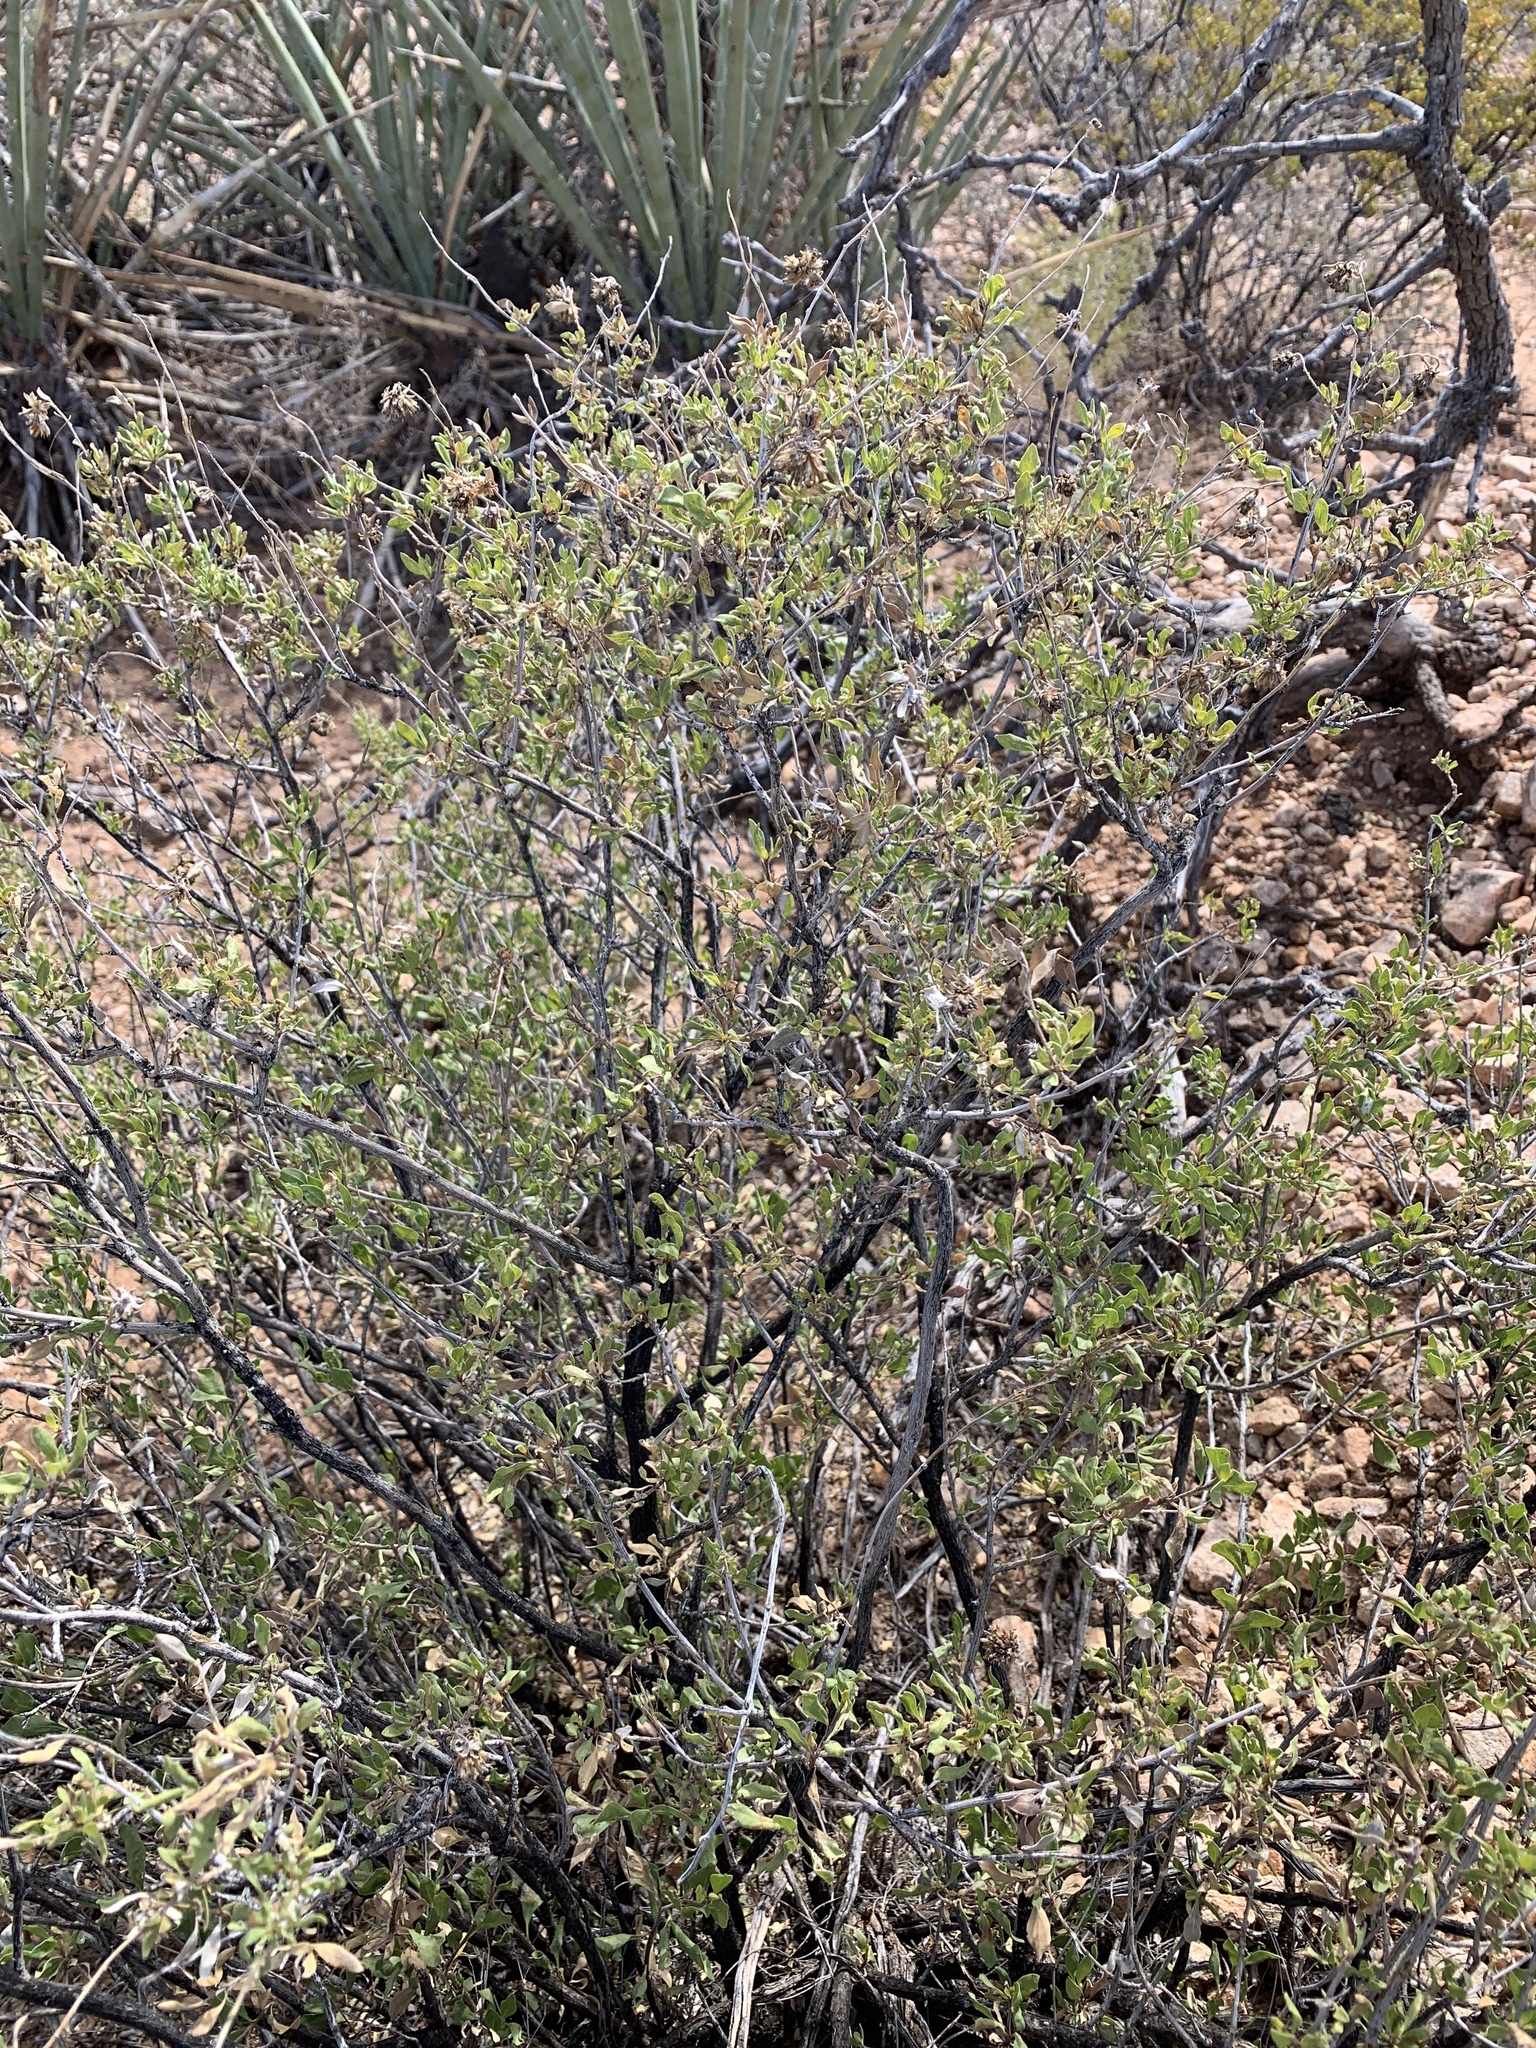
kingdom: Plantae
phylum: Tracheophyta
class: Magnoliopsida
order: Asterales
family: Asteraceae
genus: Flourensia
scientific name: Flourensia cernua
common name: Varnishbush
